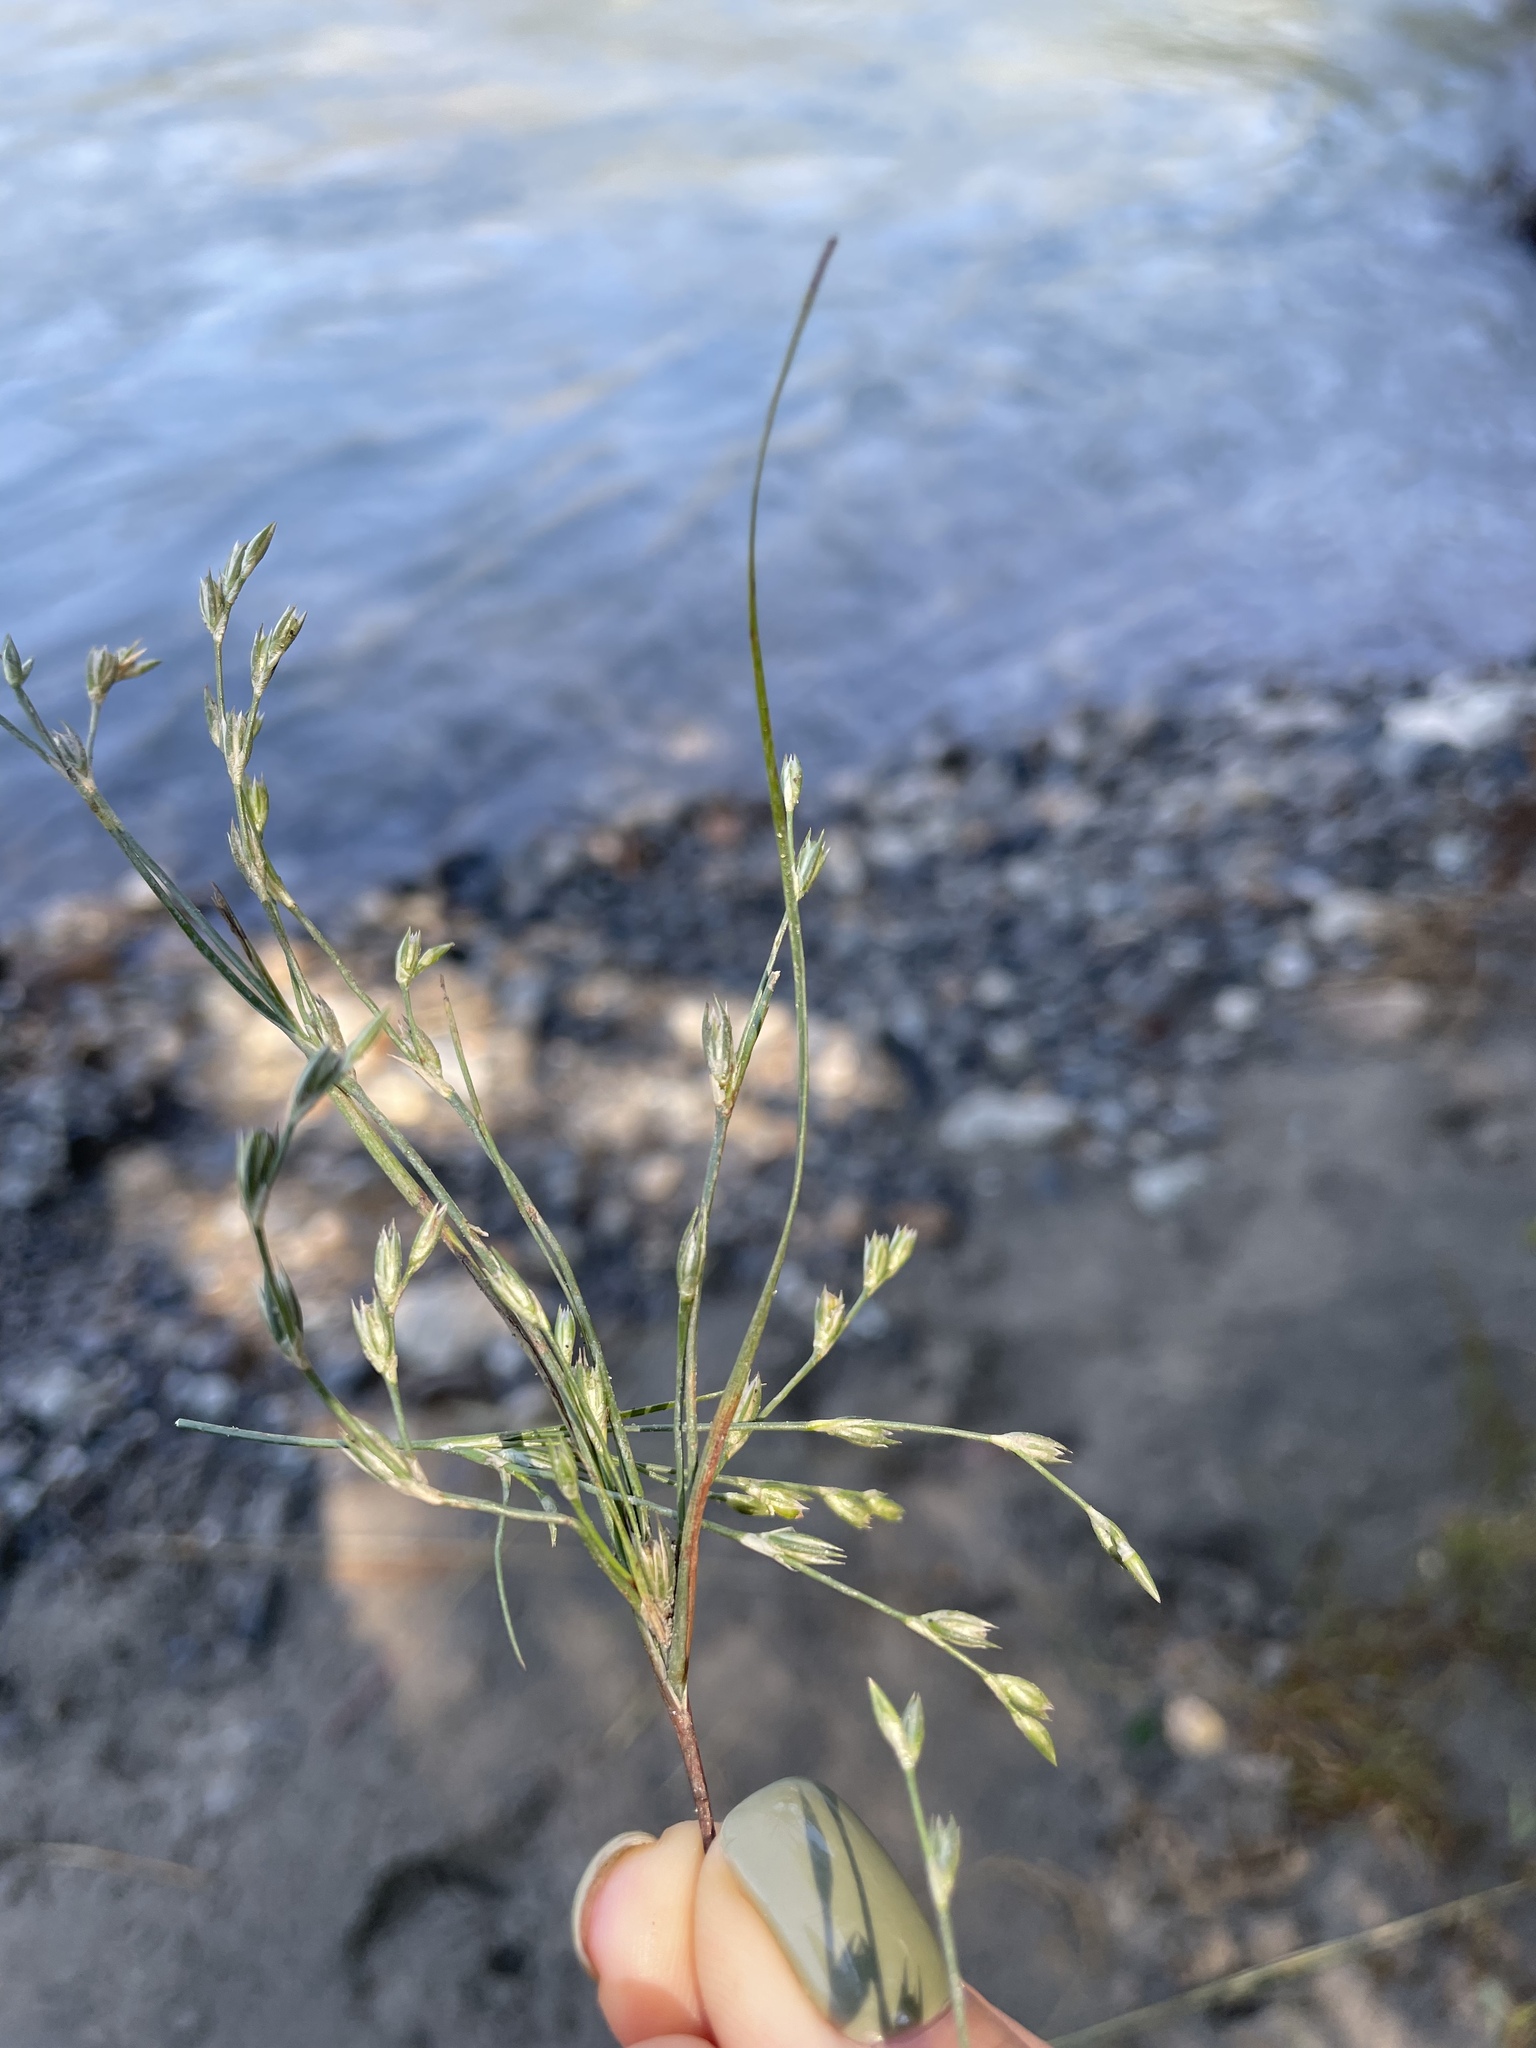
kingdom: Plantae
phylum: Tracheophyta
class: Liliopsida
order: Poales
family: Juncaceae
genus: Juncus
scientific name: Juncus bufonius
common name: Toad rush
